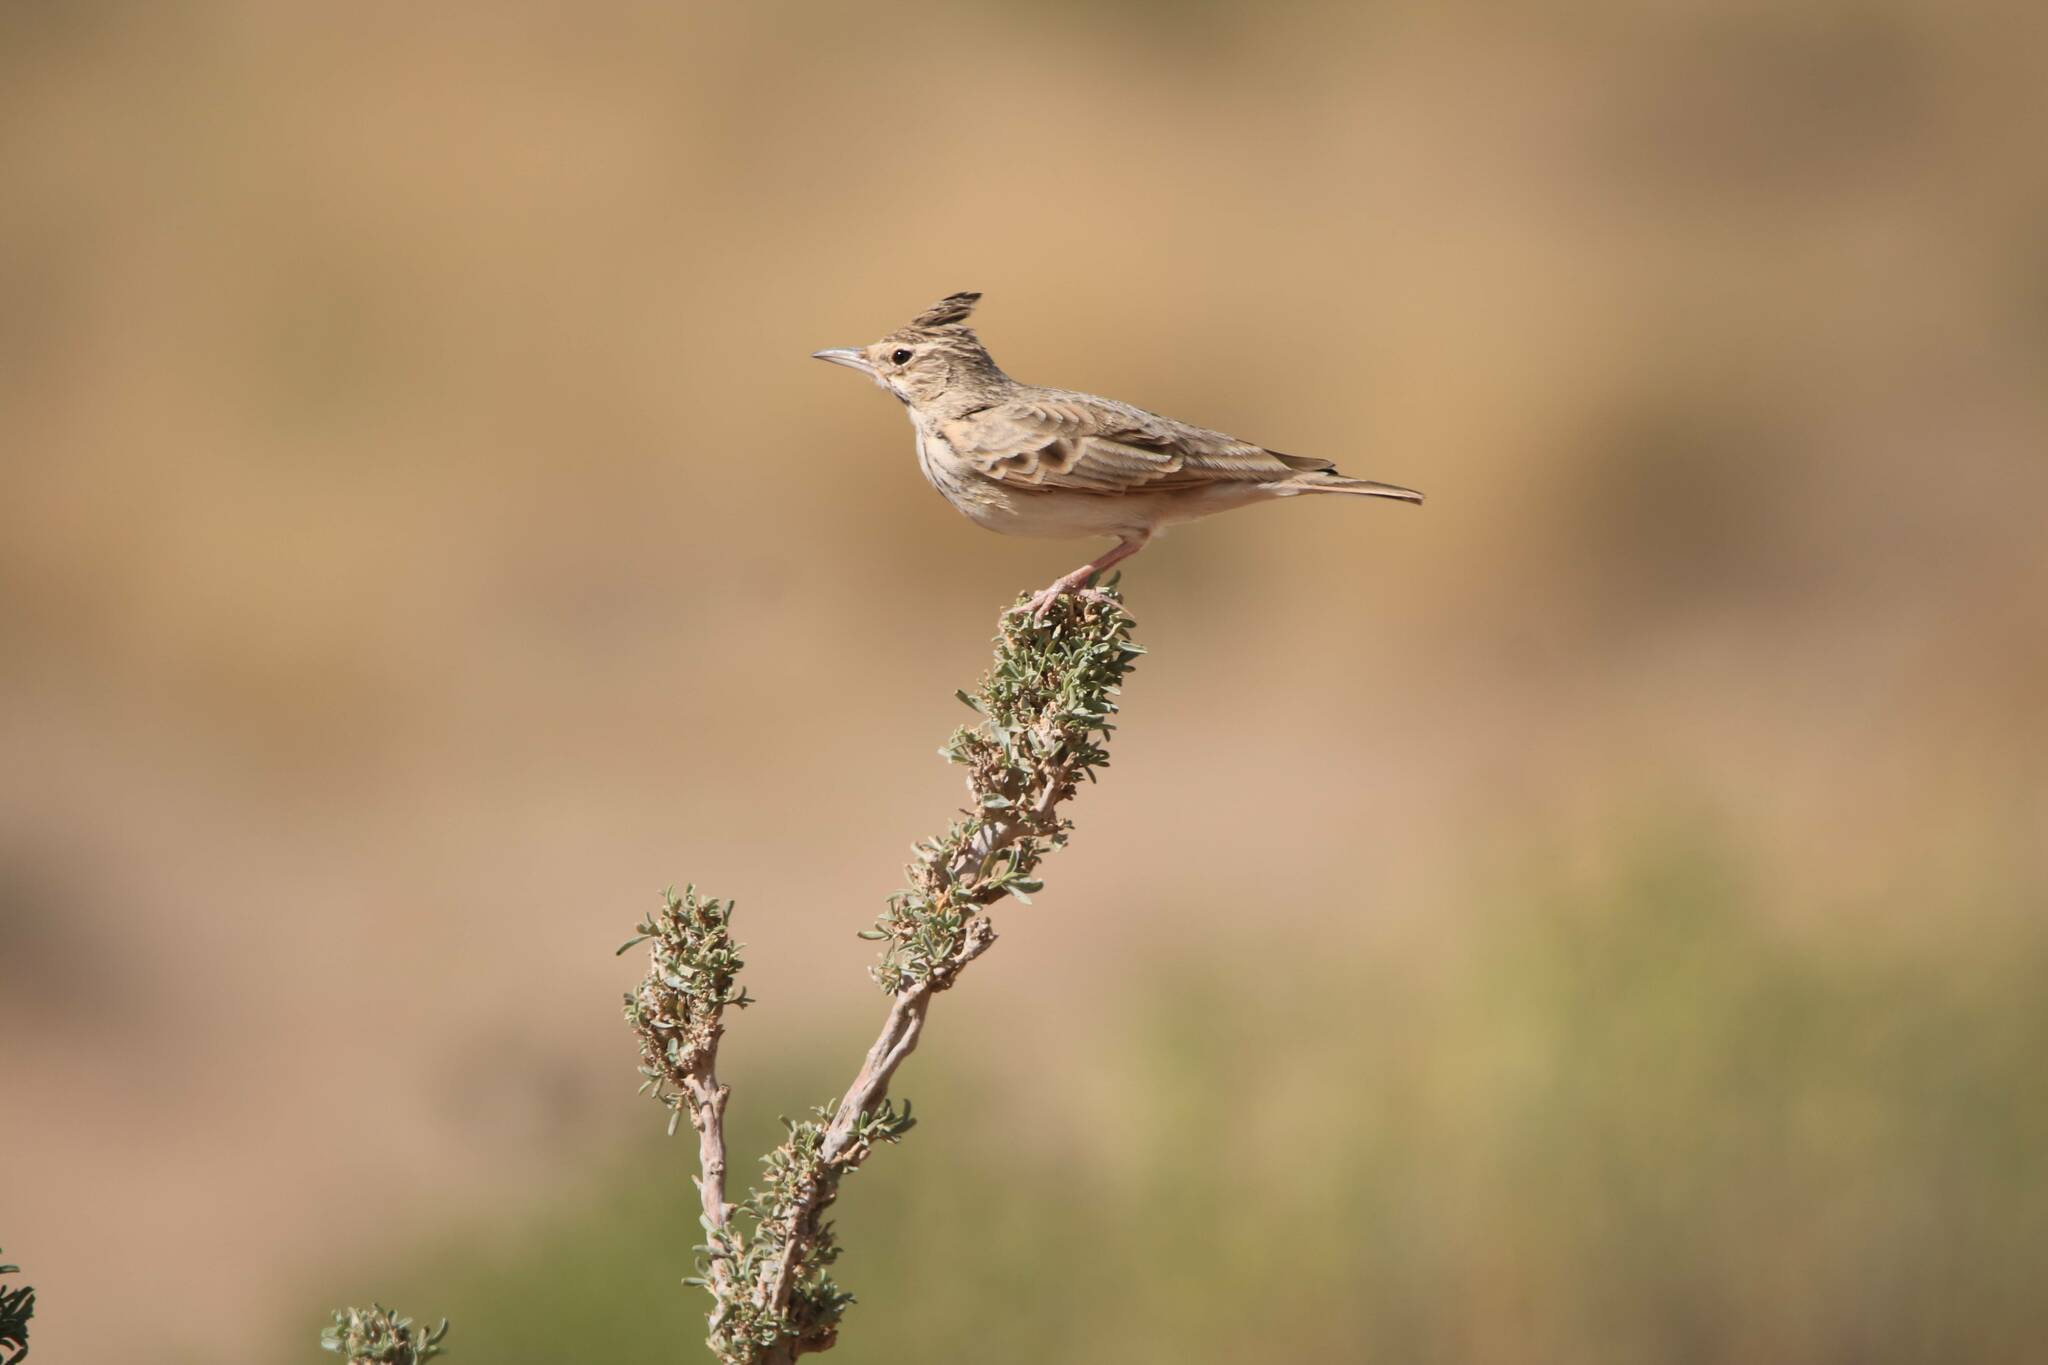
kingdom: Animalia
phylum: Chordata
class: Aves
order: Passeriformes
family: Alaudidae
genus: Galerida
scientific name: Galerida cristata
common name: Crested lark
